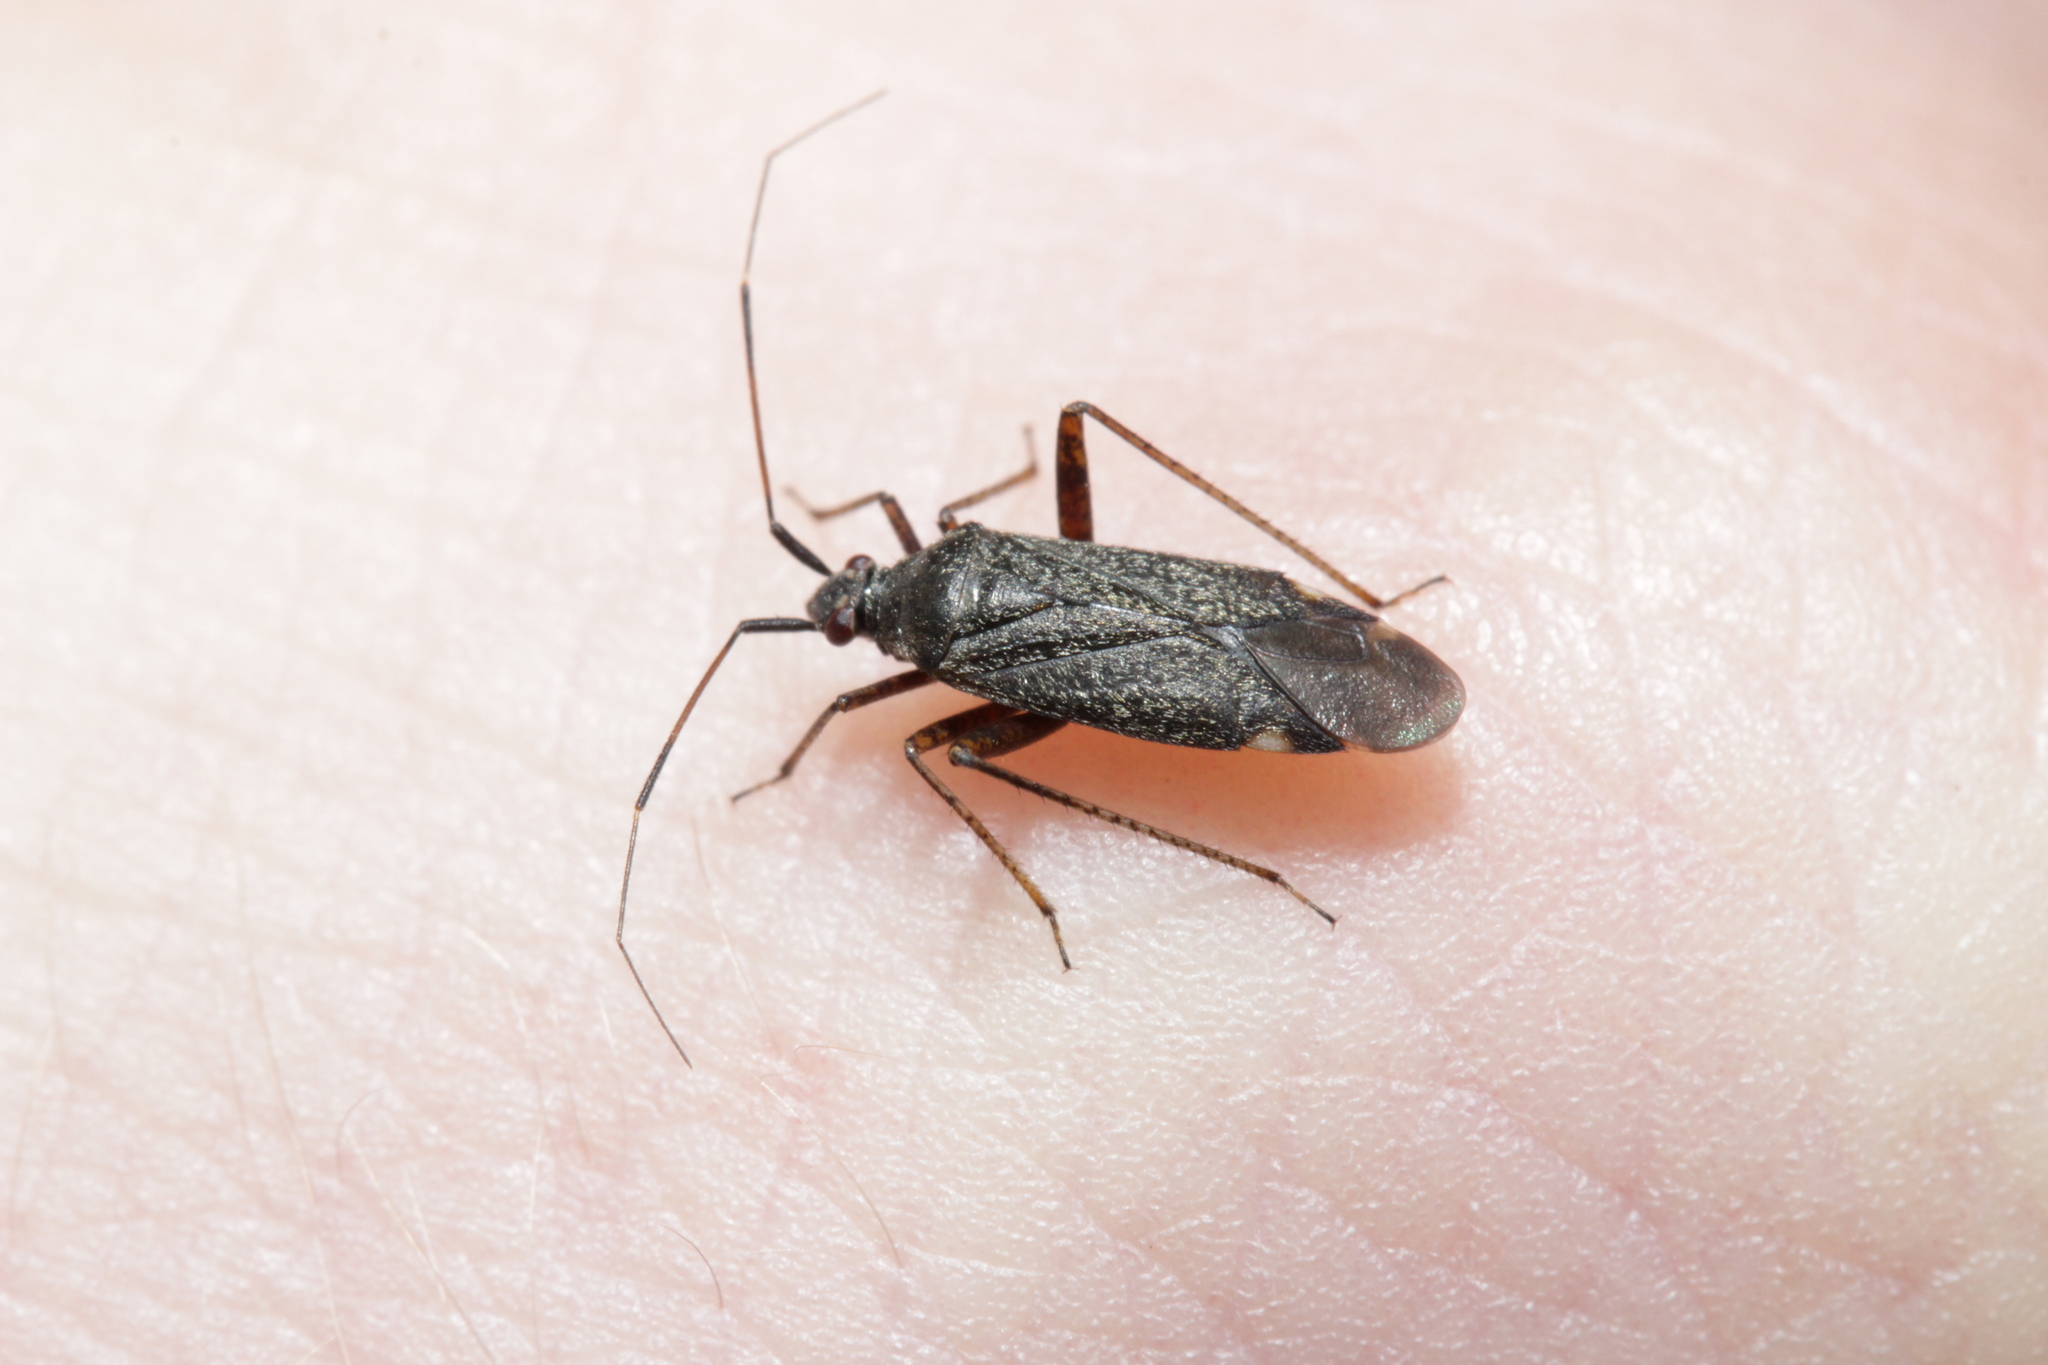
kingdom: Animalia
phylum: Arthropoda
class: Insecta
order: Hemiptera
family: Miridae
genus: Closterotomus
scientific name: Closterotomus fulvomaculatus
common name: Spotted plant bug
